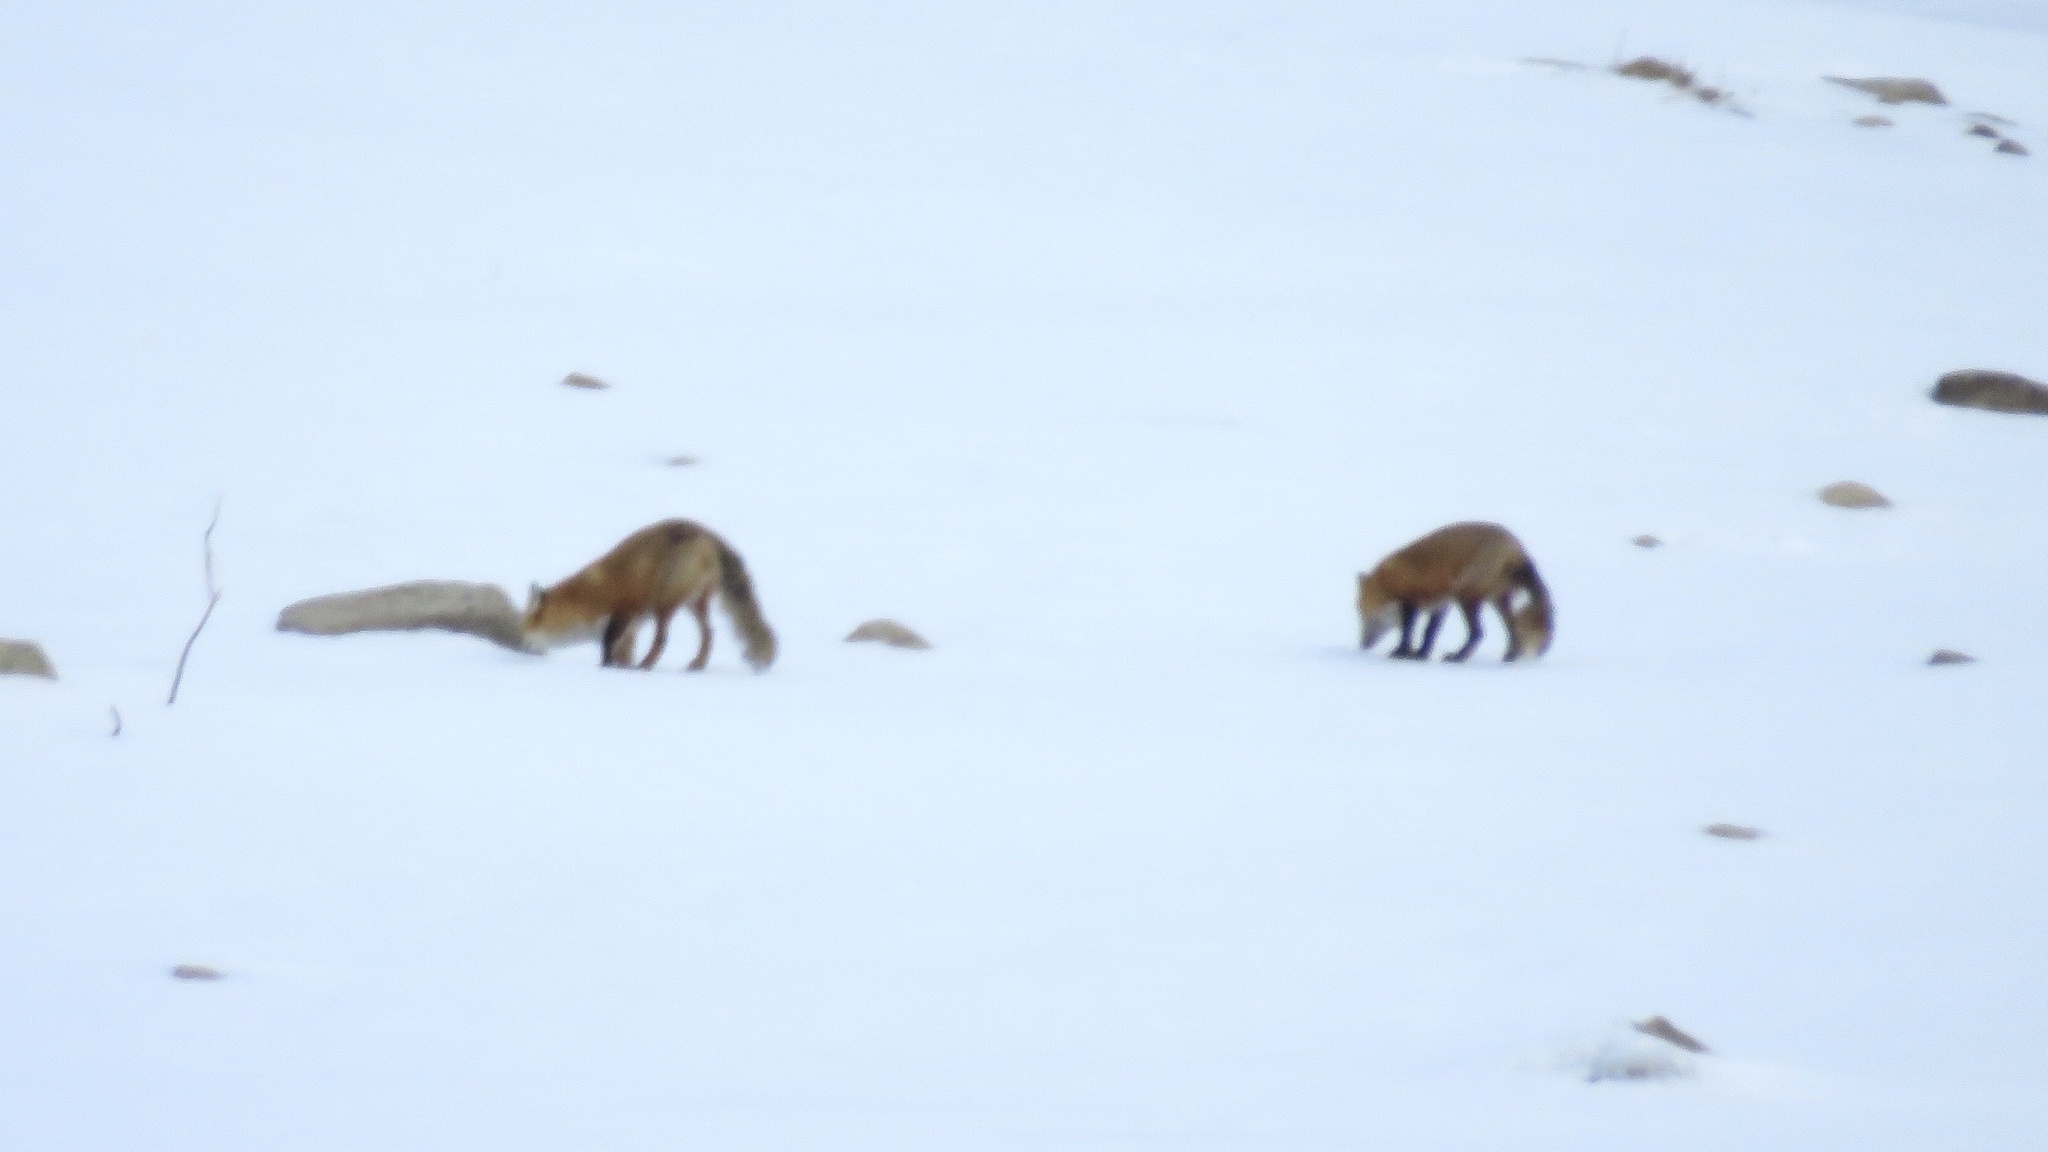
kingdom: Animalia
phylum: Chordata
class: Mammalia
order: Carnivora
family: Canidae
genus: Vulpes
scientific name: Vulpes vulpes
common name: Red fox
